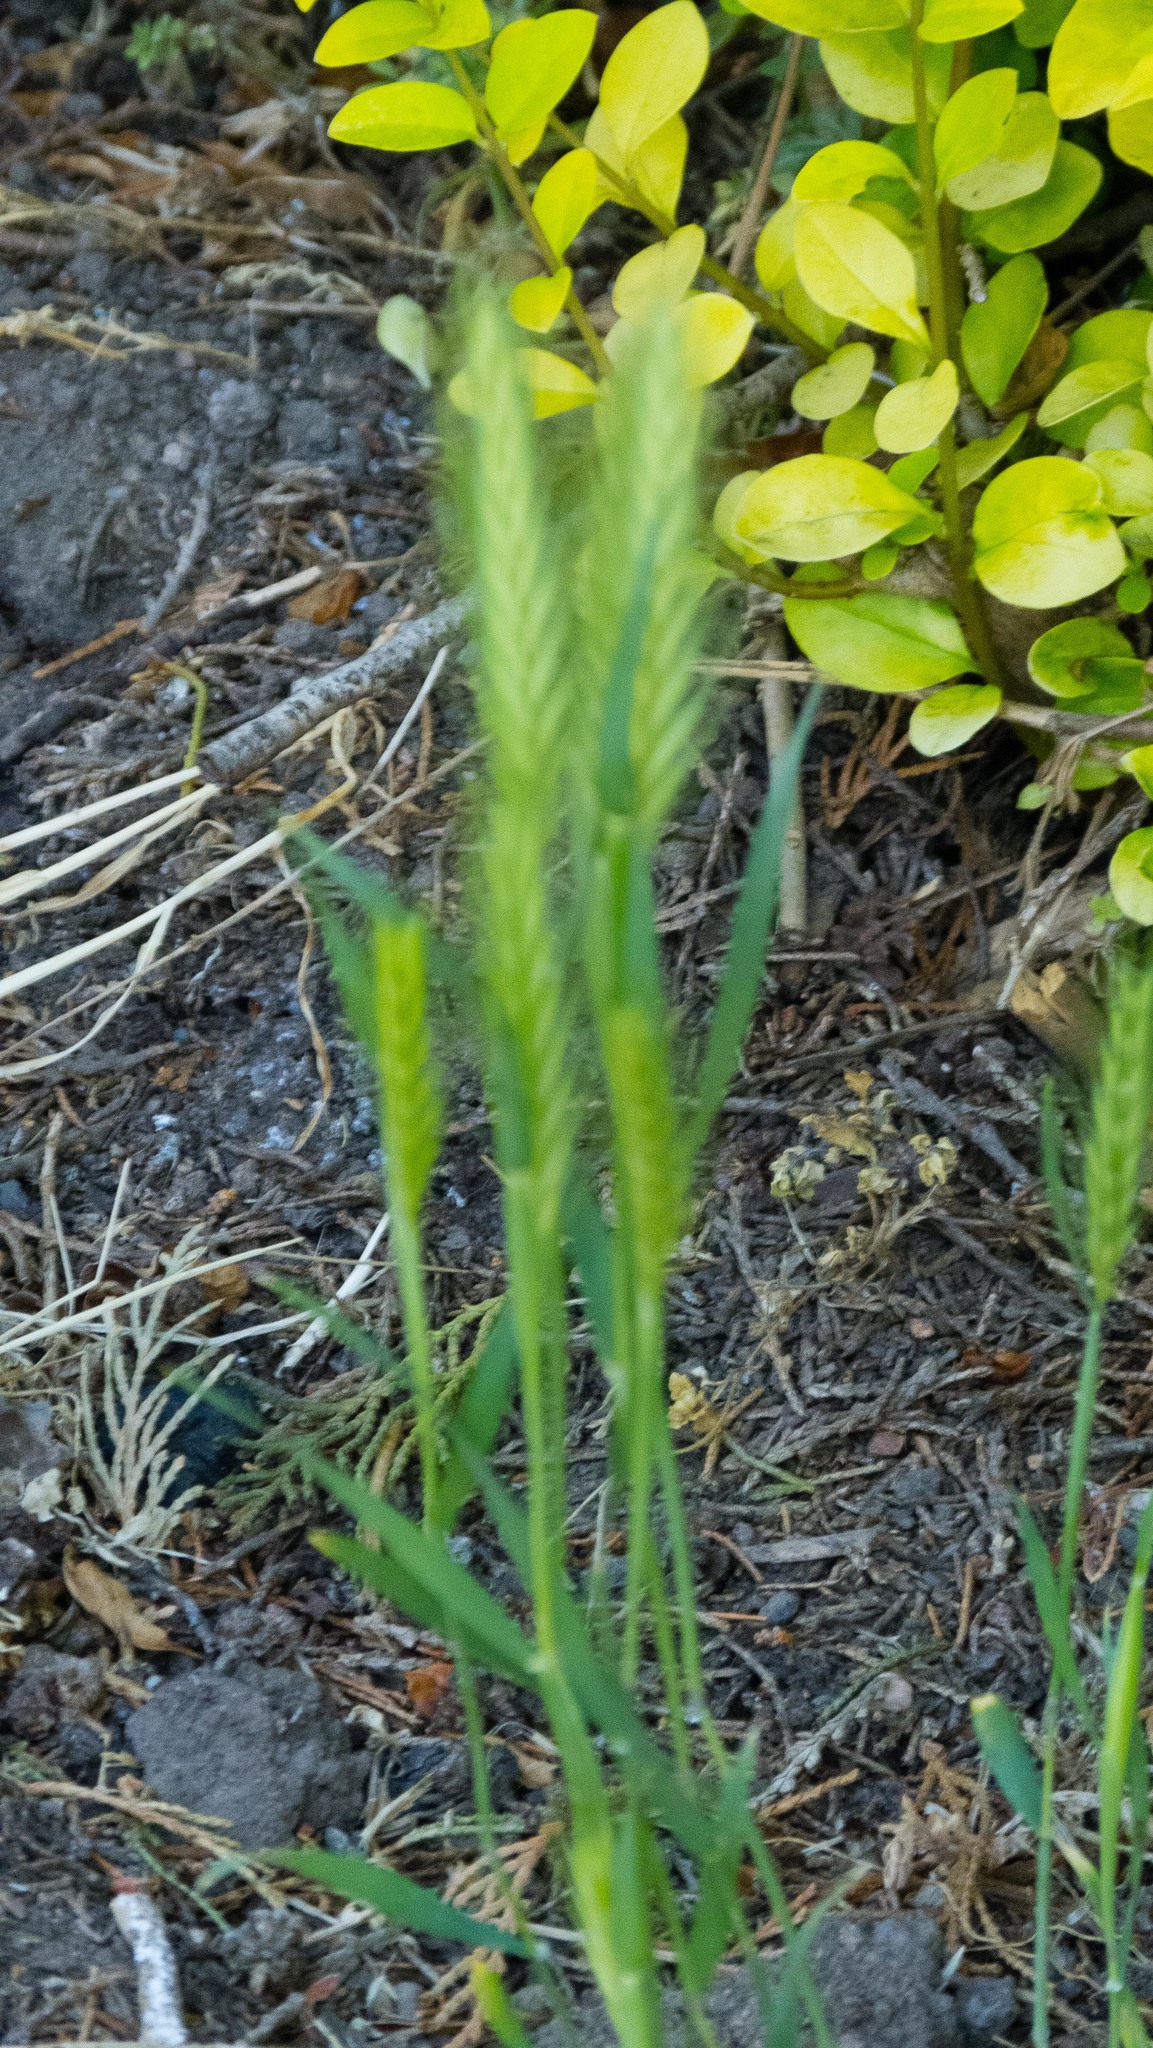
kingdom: Plantae
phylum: Tracheophyta
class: Liliopsida
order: Poales
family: Poaceae
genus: Hordeum
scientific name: Hordeum murinum
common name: Wall barley
